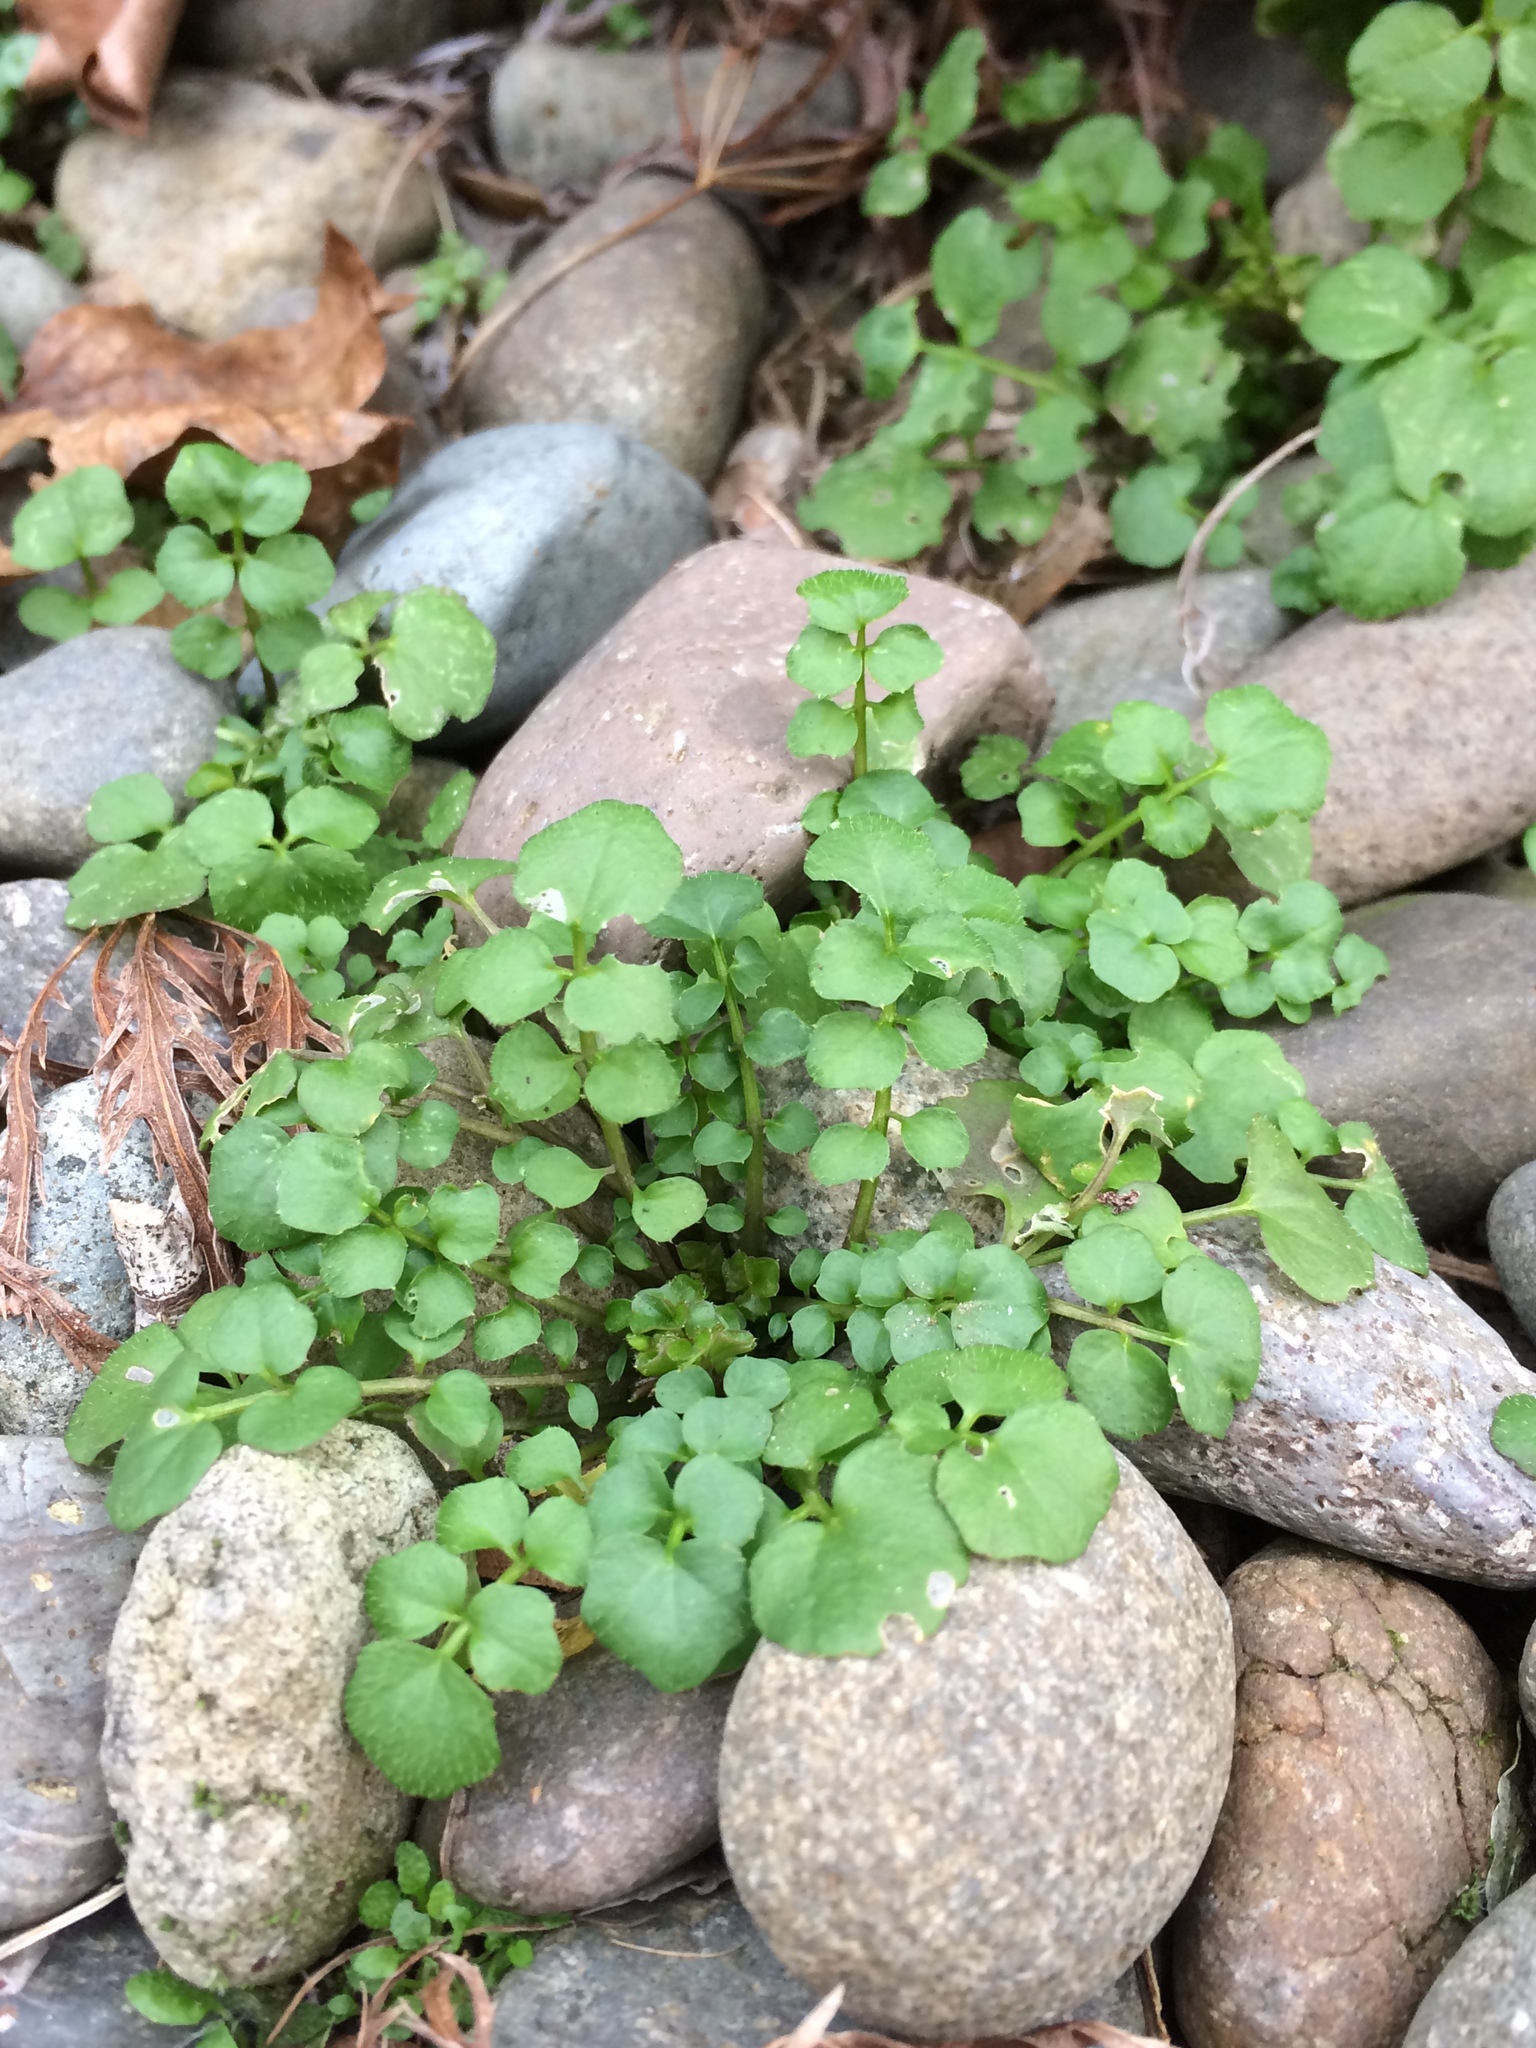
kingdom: Plantae
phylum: Tracheophyta
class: Magnoliopsida
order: Brassicales
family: Brassicaceae
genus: Cardamine
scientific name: Cardamine hirsuta
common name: Hairy bittercress
